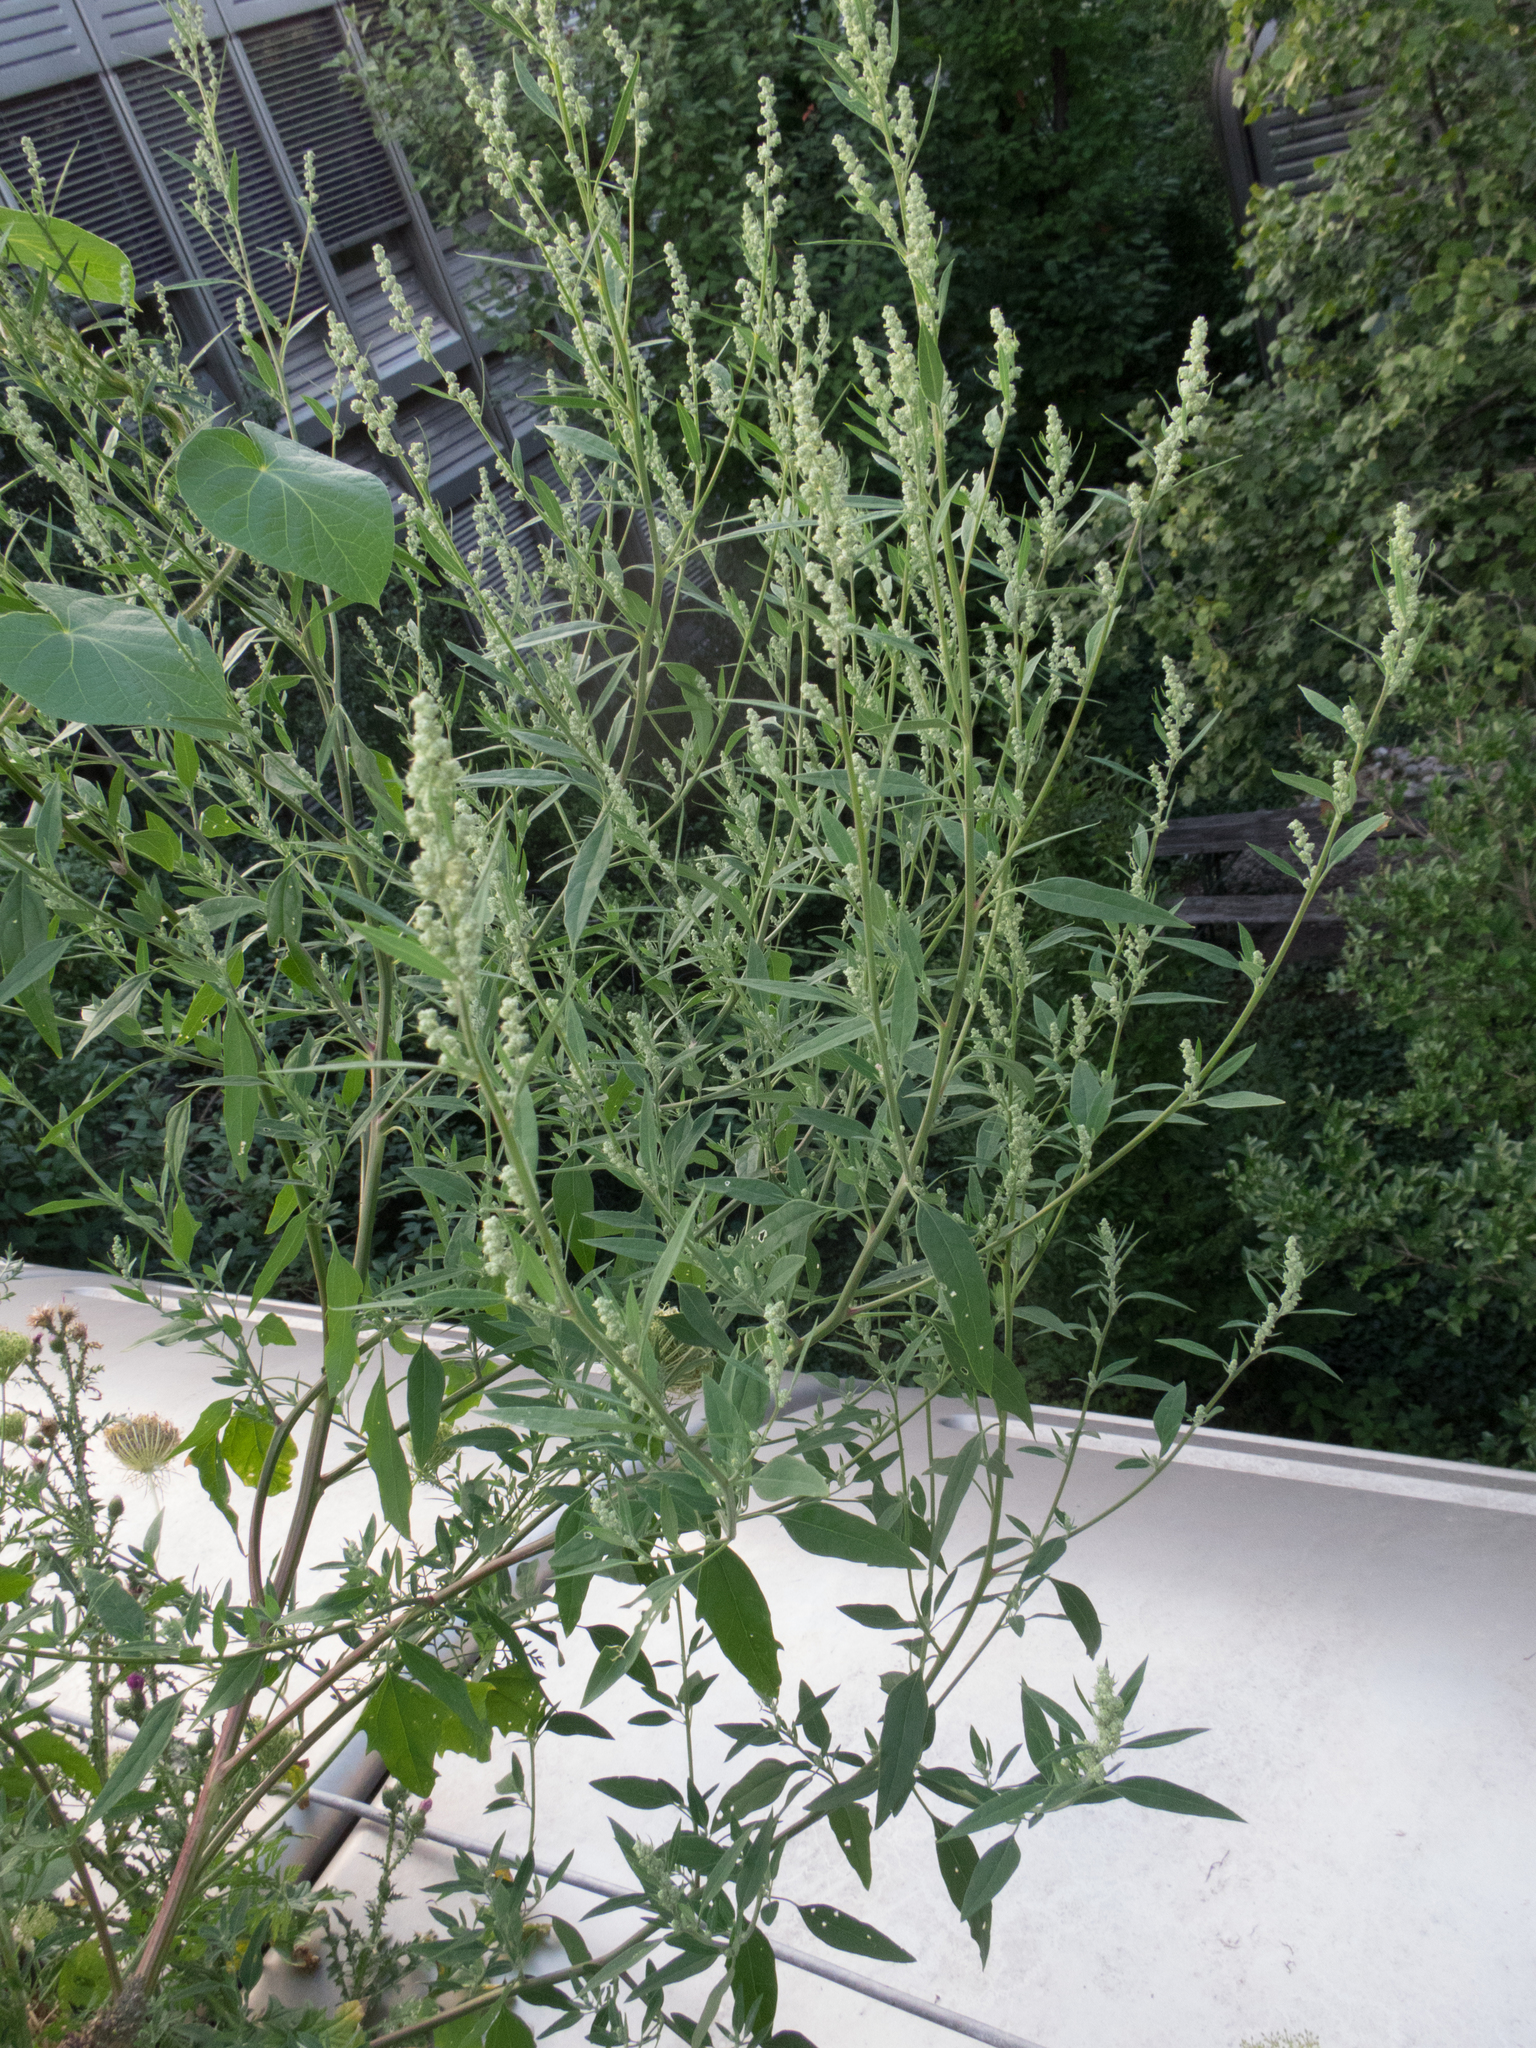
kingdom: Plantae
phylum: Tracheophyta
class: Magnoliopsida
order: Caryophyllales
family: Amaranthaceae
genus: Chenopodium
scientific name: Chenopodium album
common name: Fat-hen
